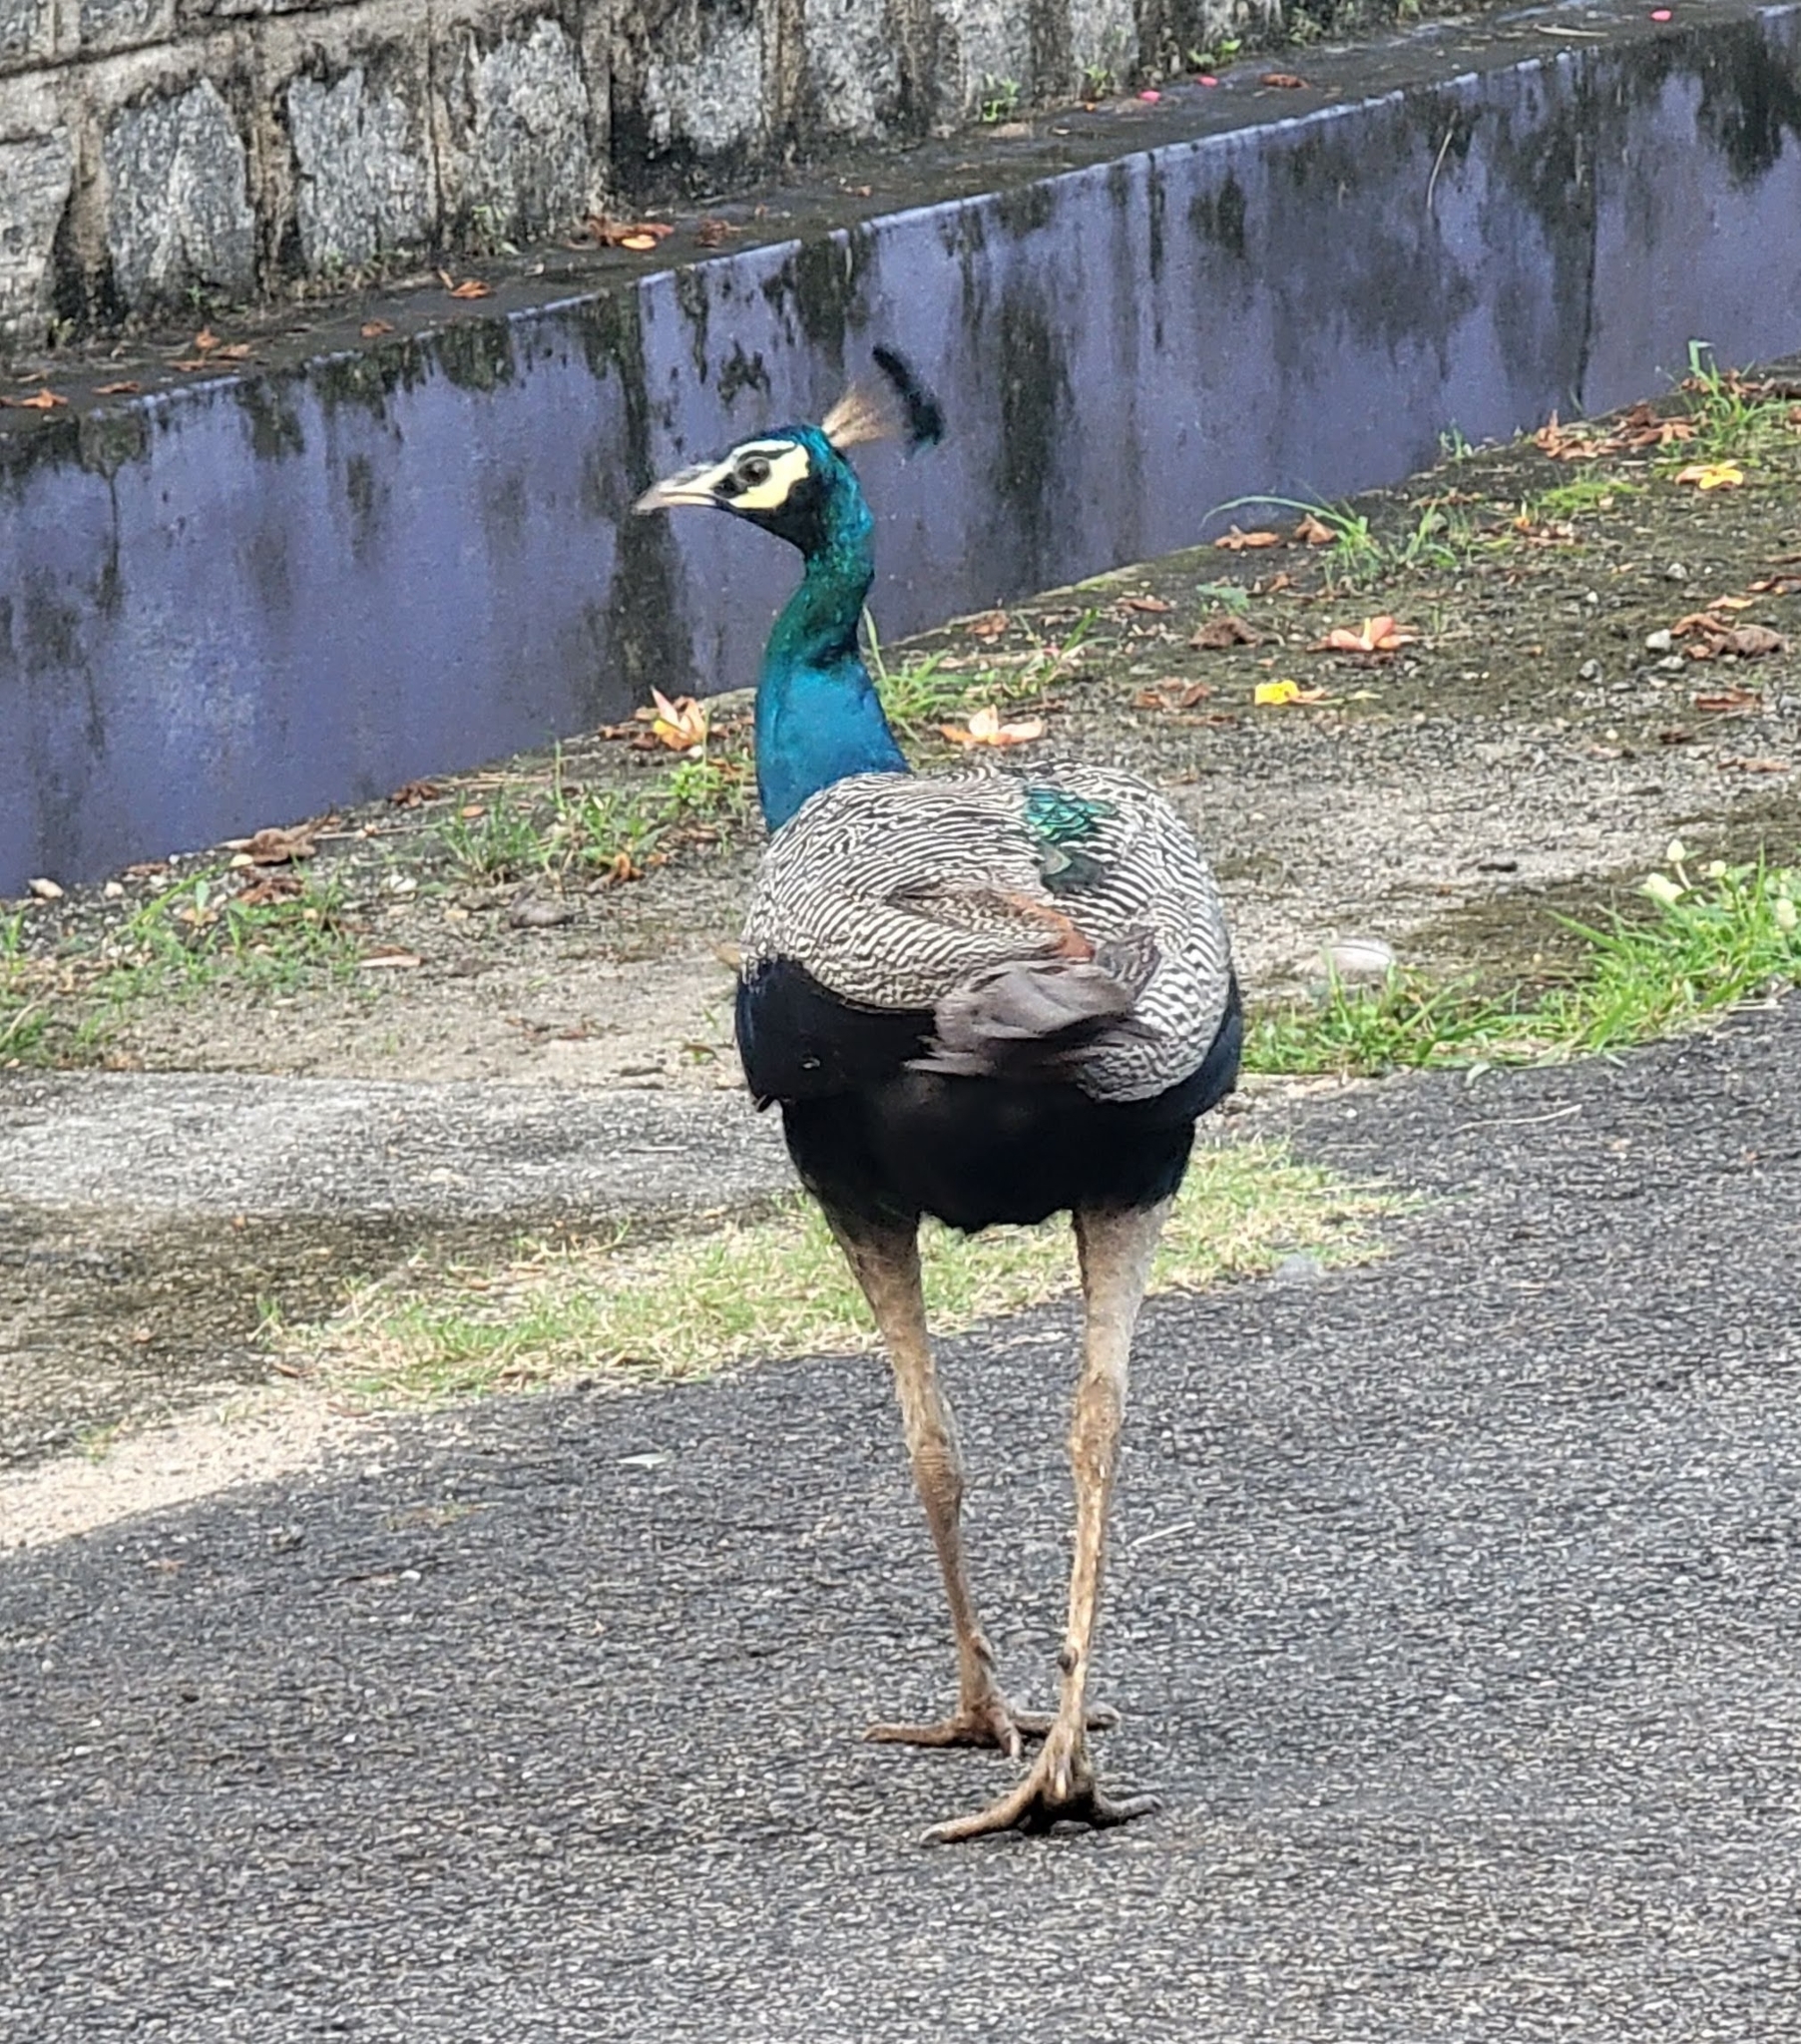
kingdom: Animalia
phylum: Chordata
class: Aves
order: Galliformes
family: Phasianidae
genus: Pavo
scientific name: Pavo cristatus
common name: Indian peafowl
